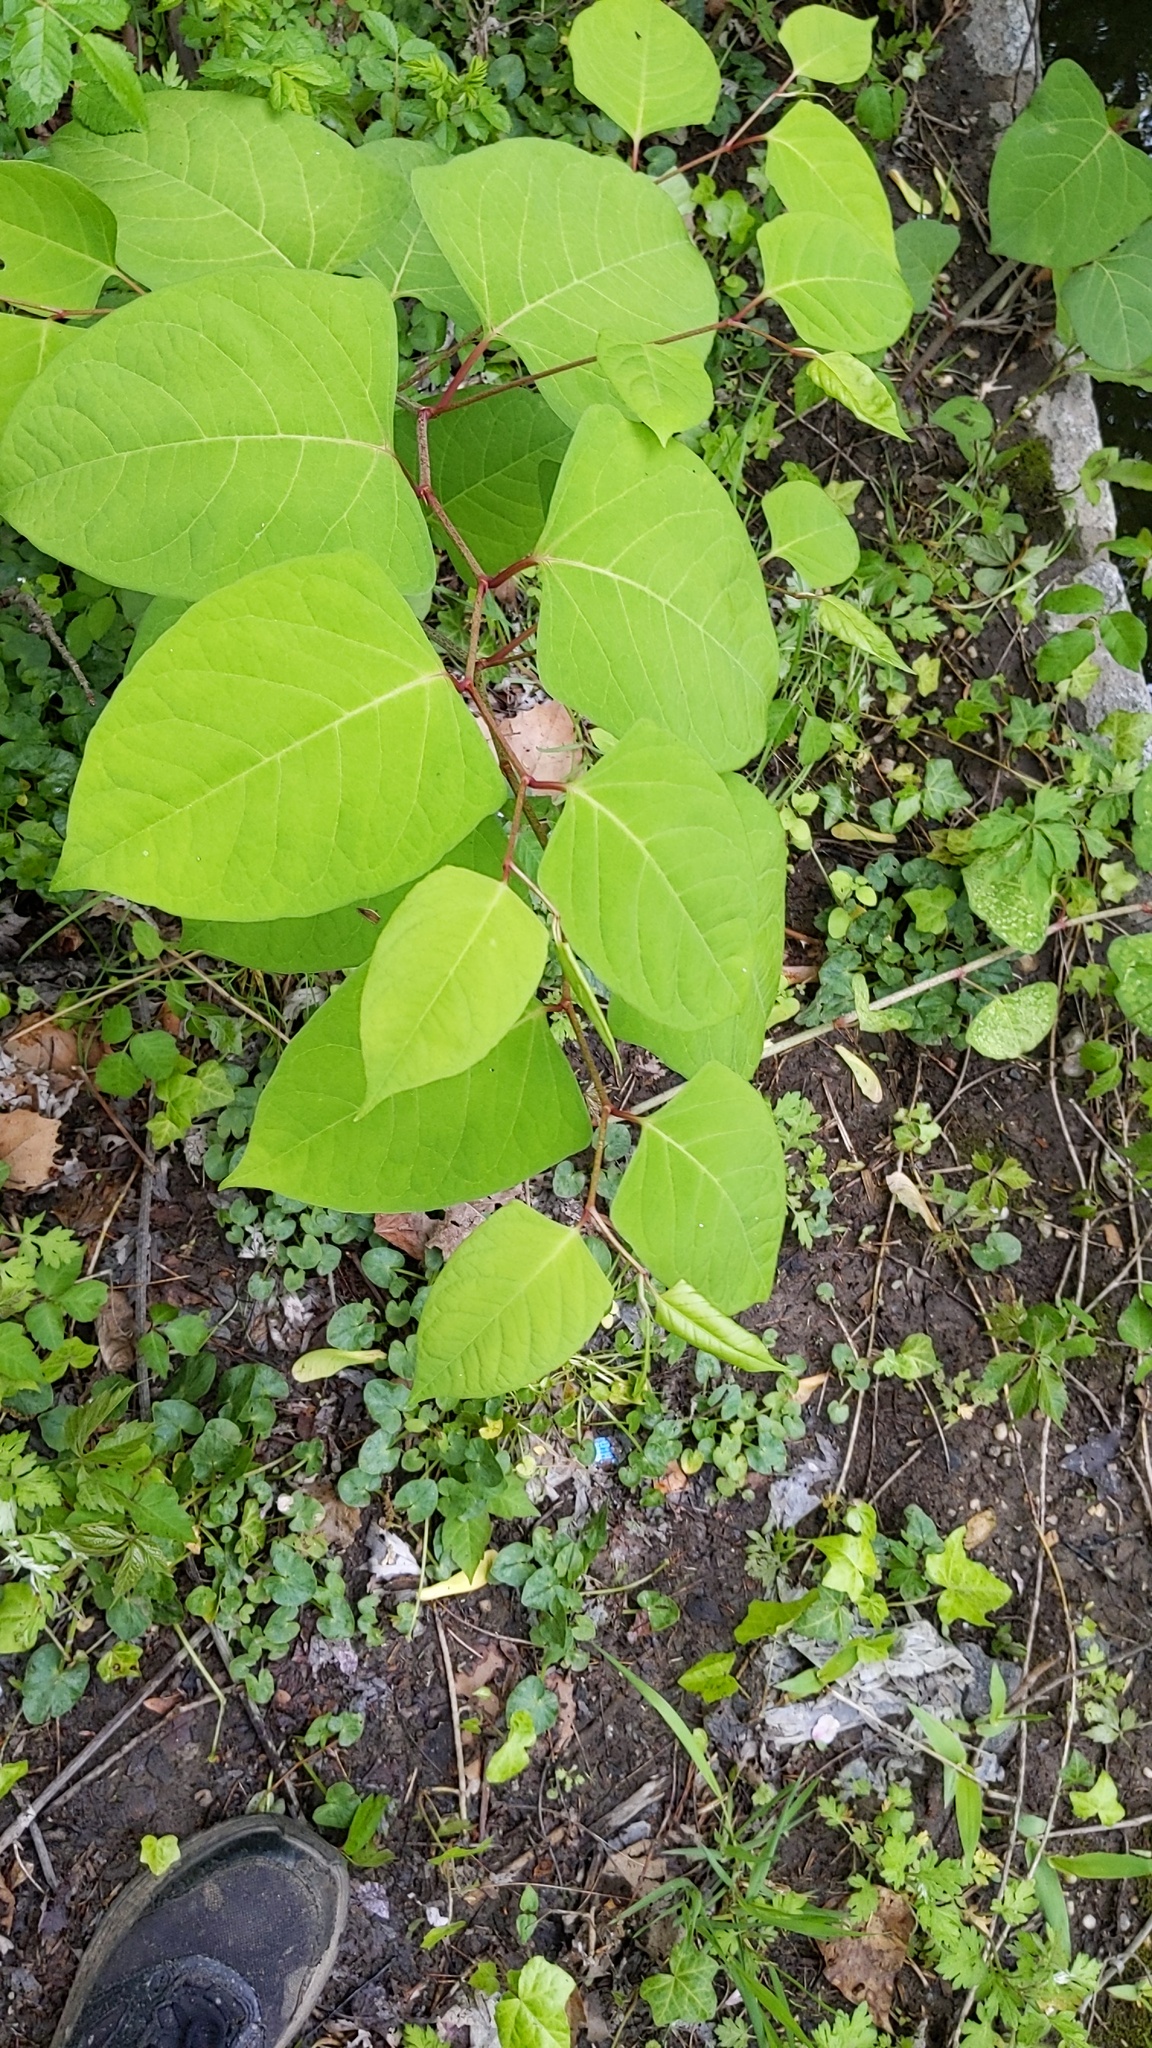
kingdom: Plantae
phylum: Tracheophyta
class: Magnoliopsida
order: Caryophyllales
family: Polygonaceae
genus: Reynoutria
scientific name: Reynoutria japonica
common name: Japanese knotweed
